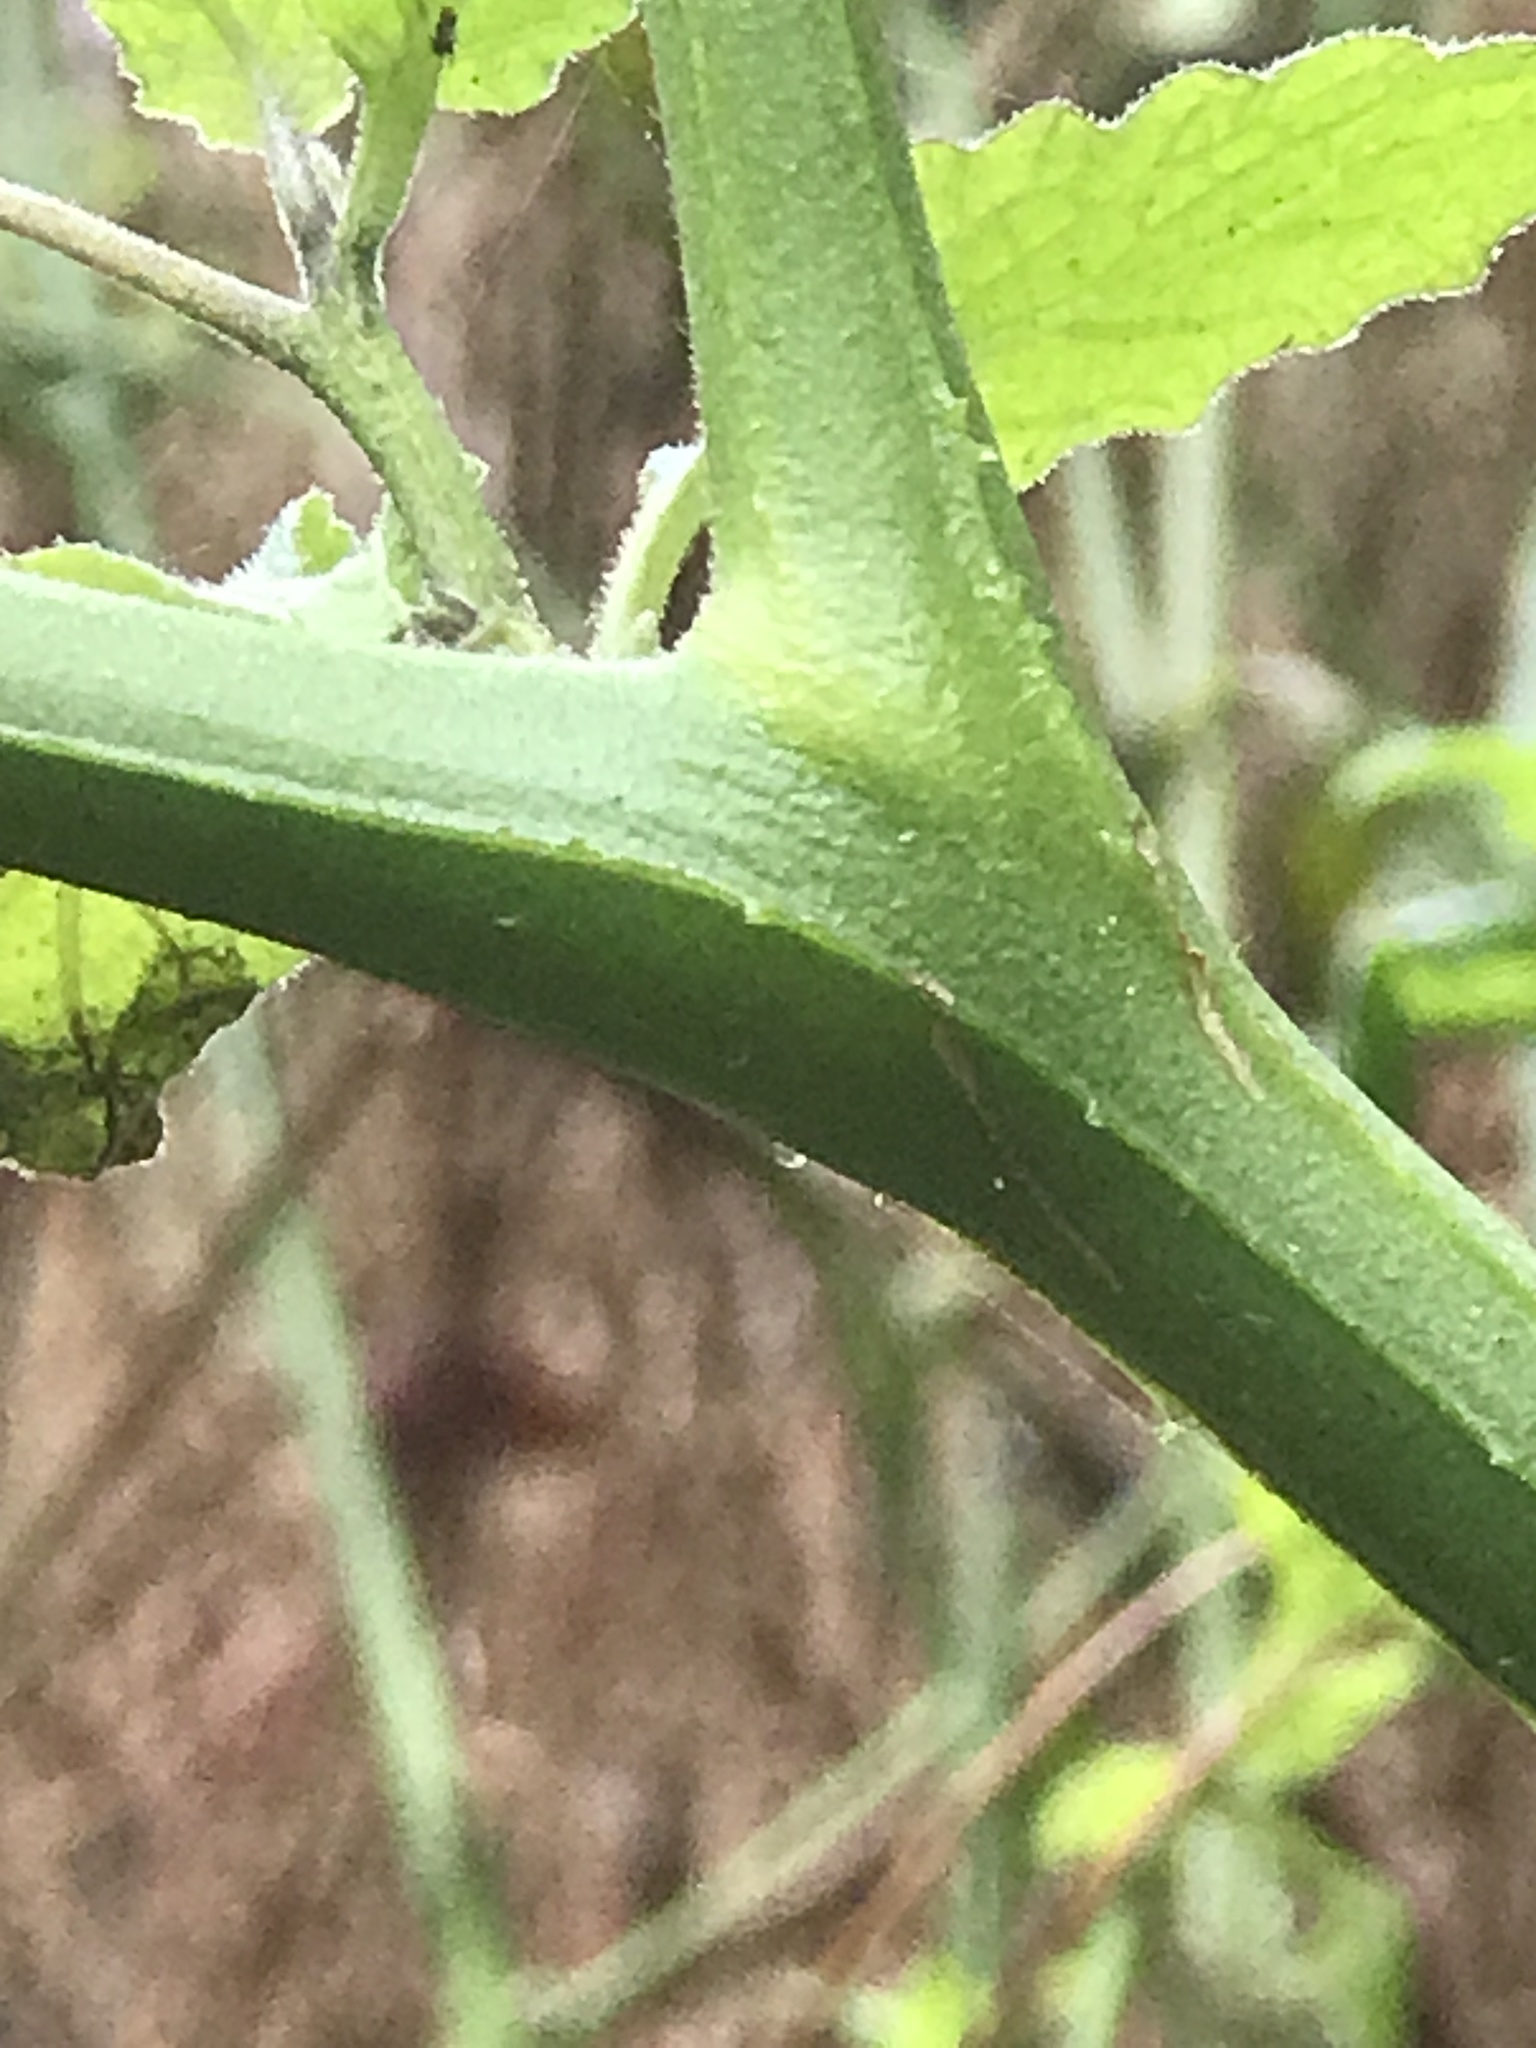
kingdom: Plantae
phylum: Tracheophyta
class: Magnoliopsida
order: Solanales
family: Solanaceae
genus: Solanum
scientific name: Solanum douglasii
